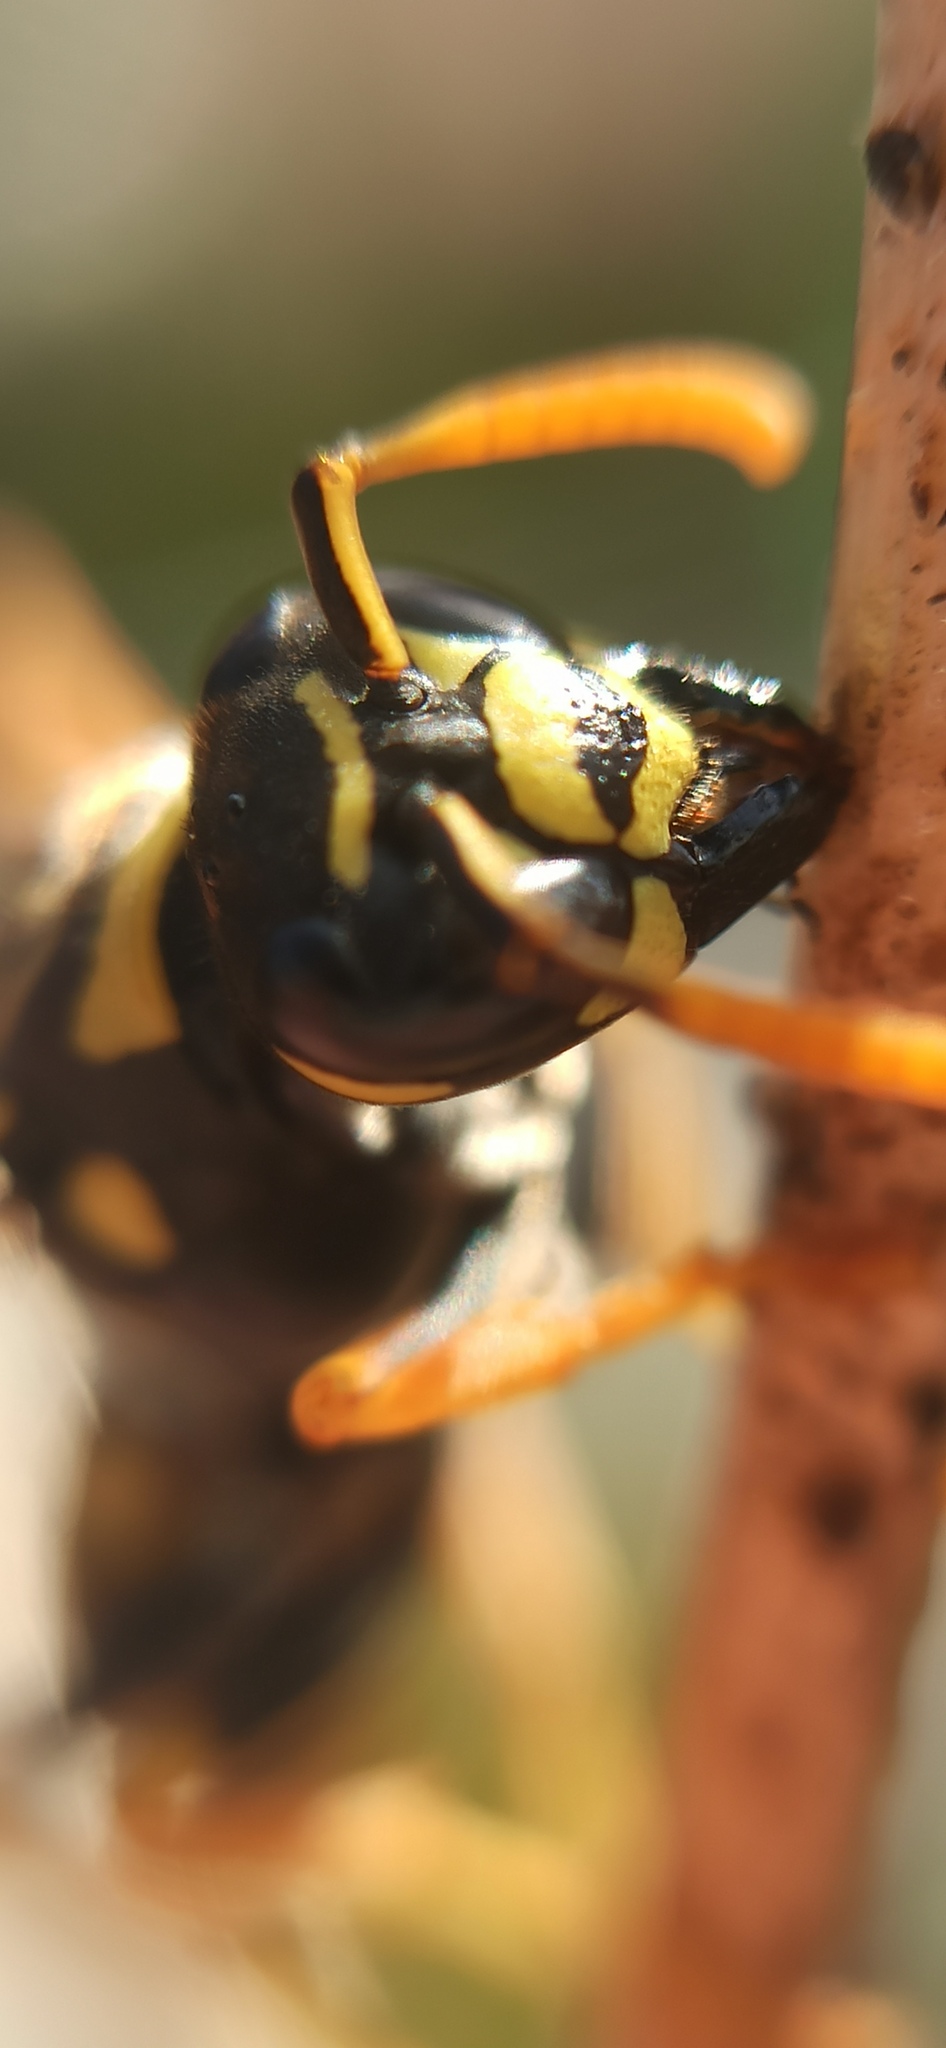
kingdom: Animalia
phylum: Arthropoda
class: Insecta
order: Hymenoptera
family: Eumenidae
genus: Polistes
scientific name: Polistes dominula
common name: Paper wasp
